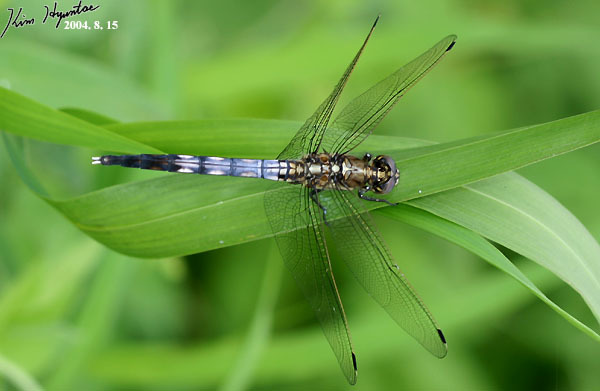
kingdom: Animalia
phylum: Arthropoda
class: Insecta
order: Odonata
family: Libellulidae
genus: Orthetrum
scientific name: Orthetrum albistylum
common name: White-tailed skimmer
